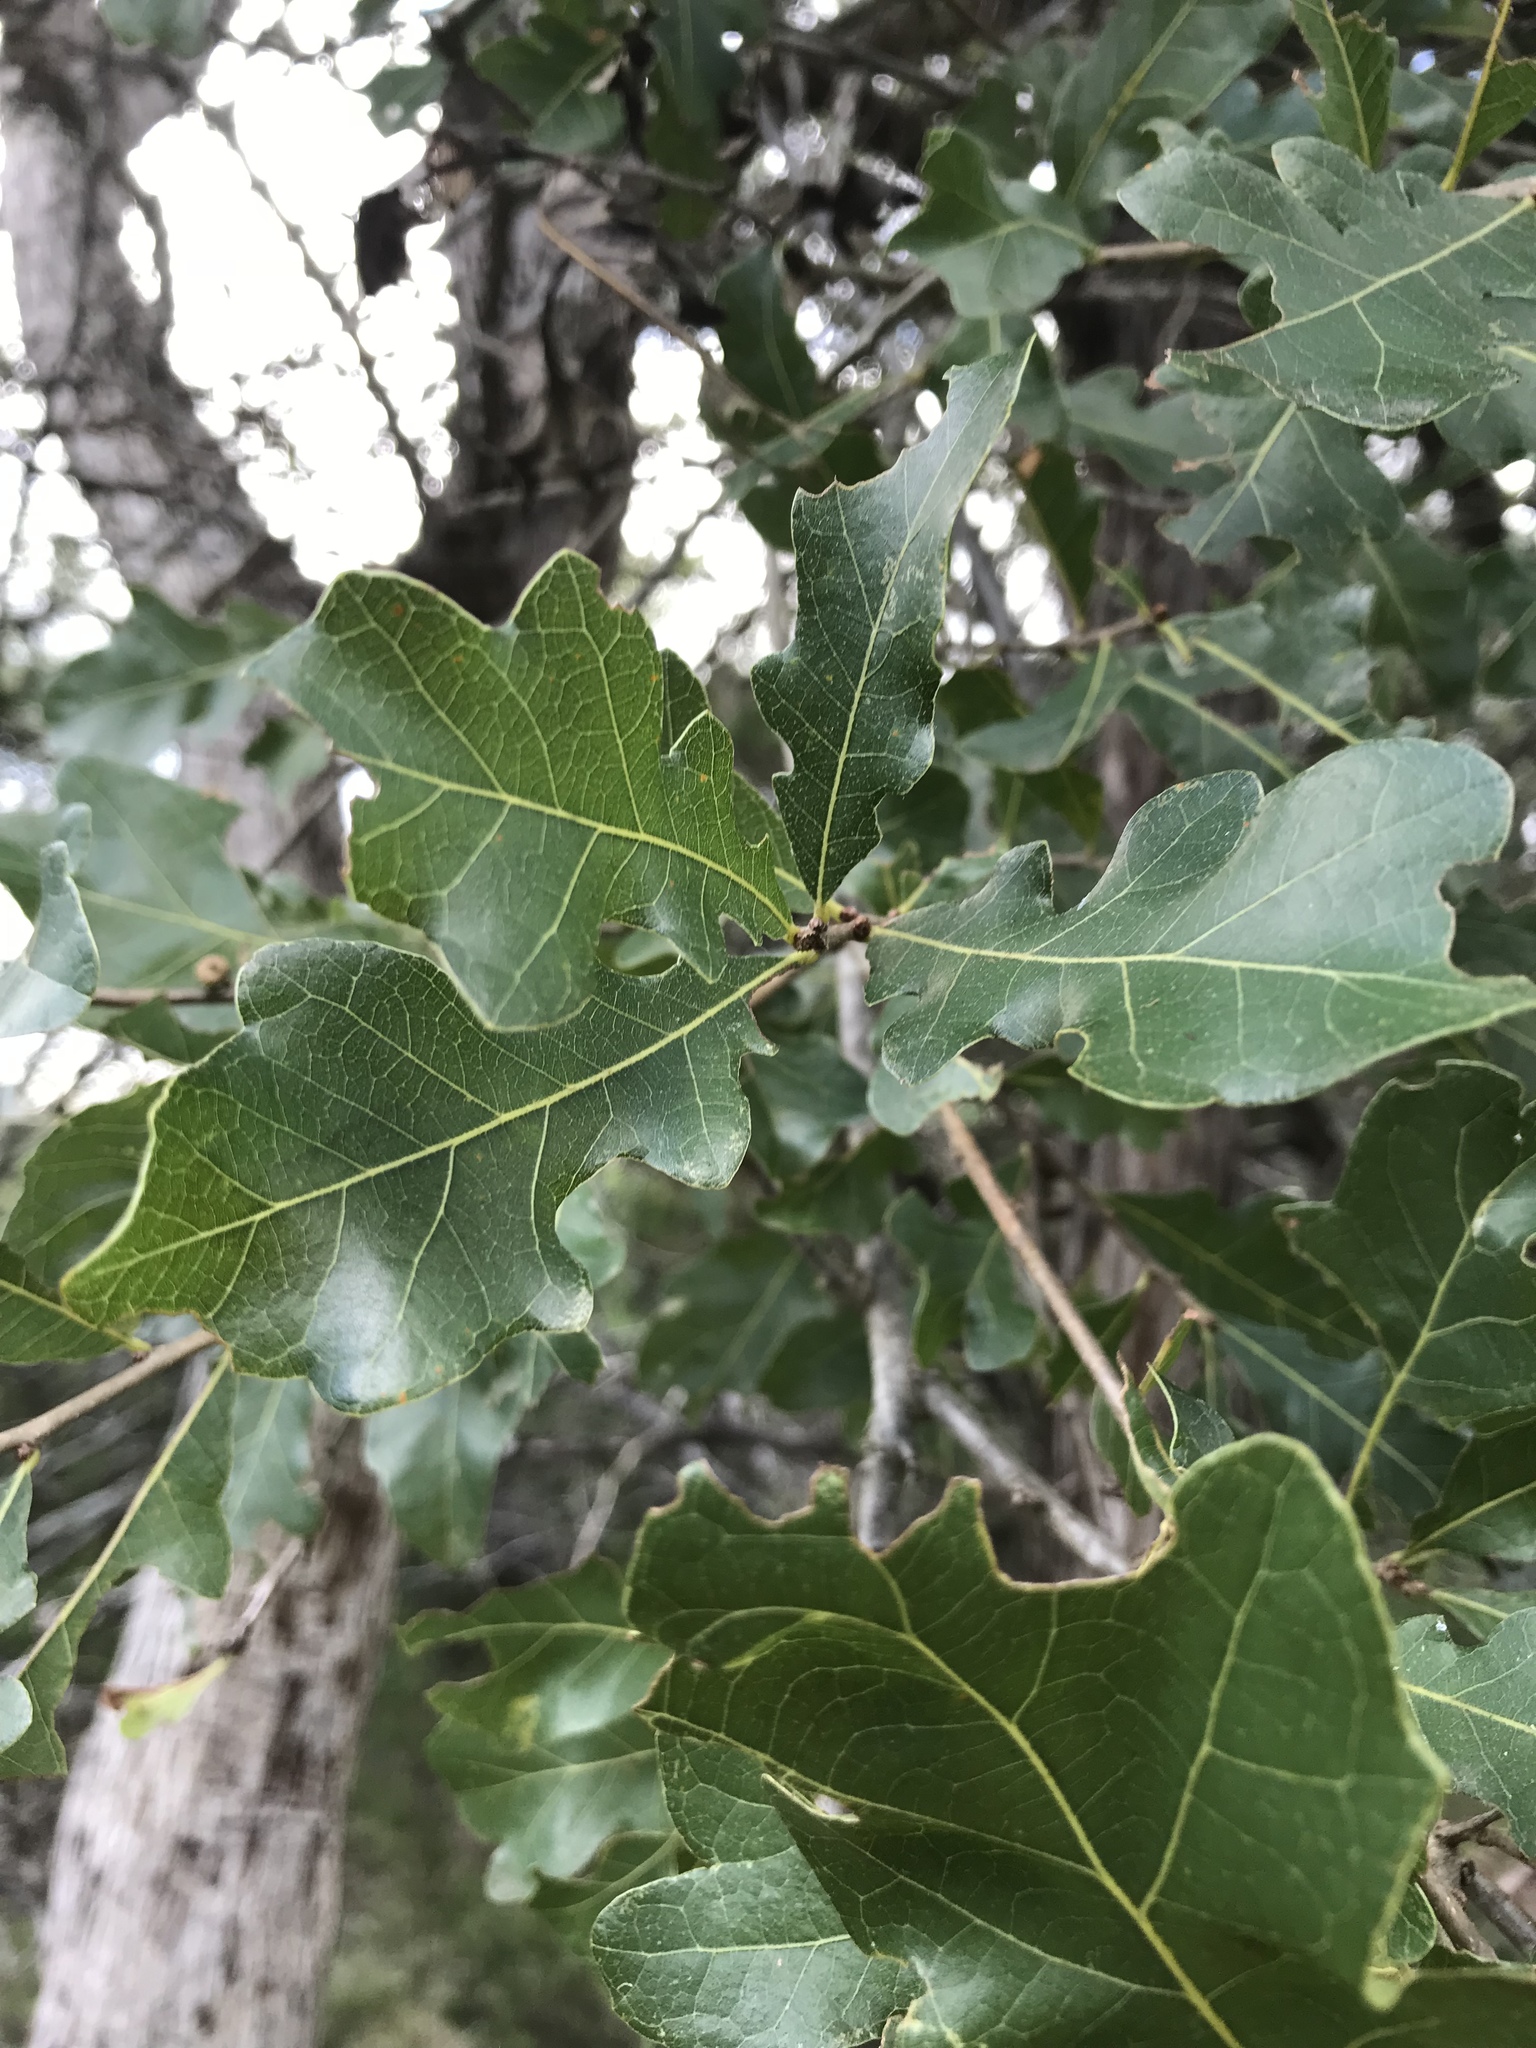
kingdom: Plantae
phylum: Tracheophyta
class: Magnoliopsida
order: Fagales
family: Fagaceae
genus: Quercus
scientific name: Quercus sinuata
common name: Durand oak
